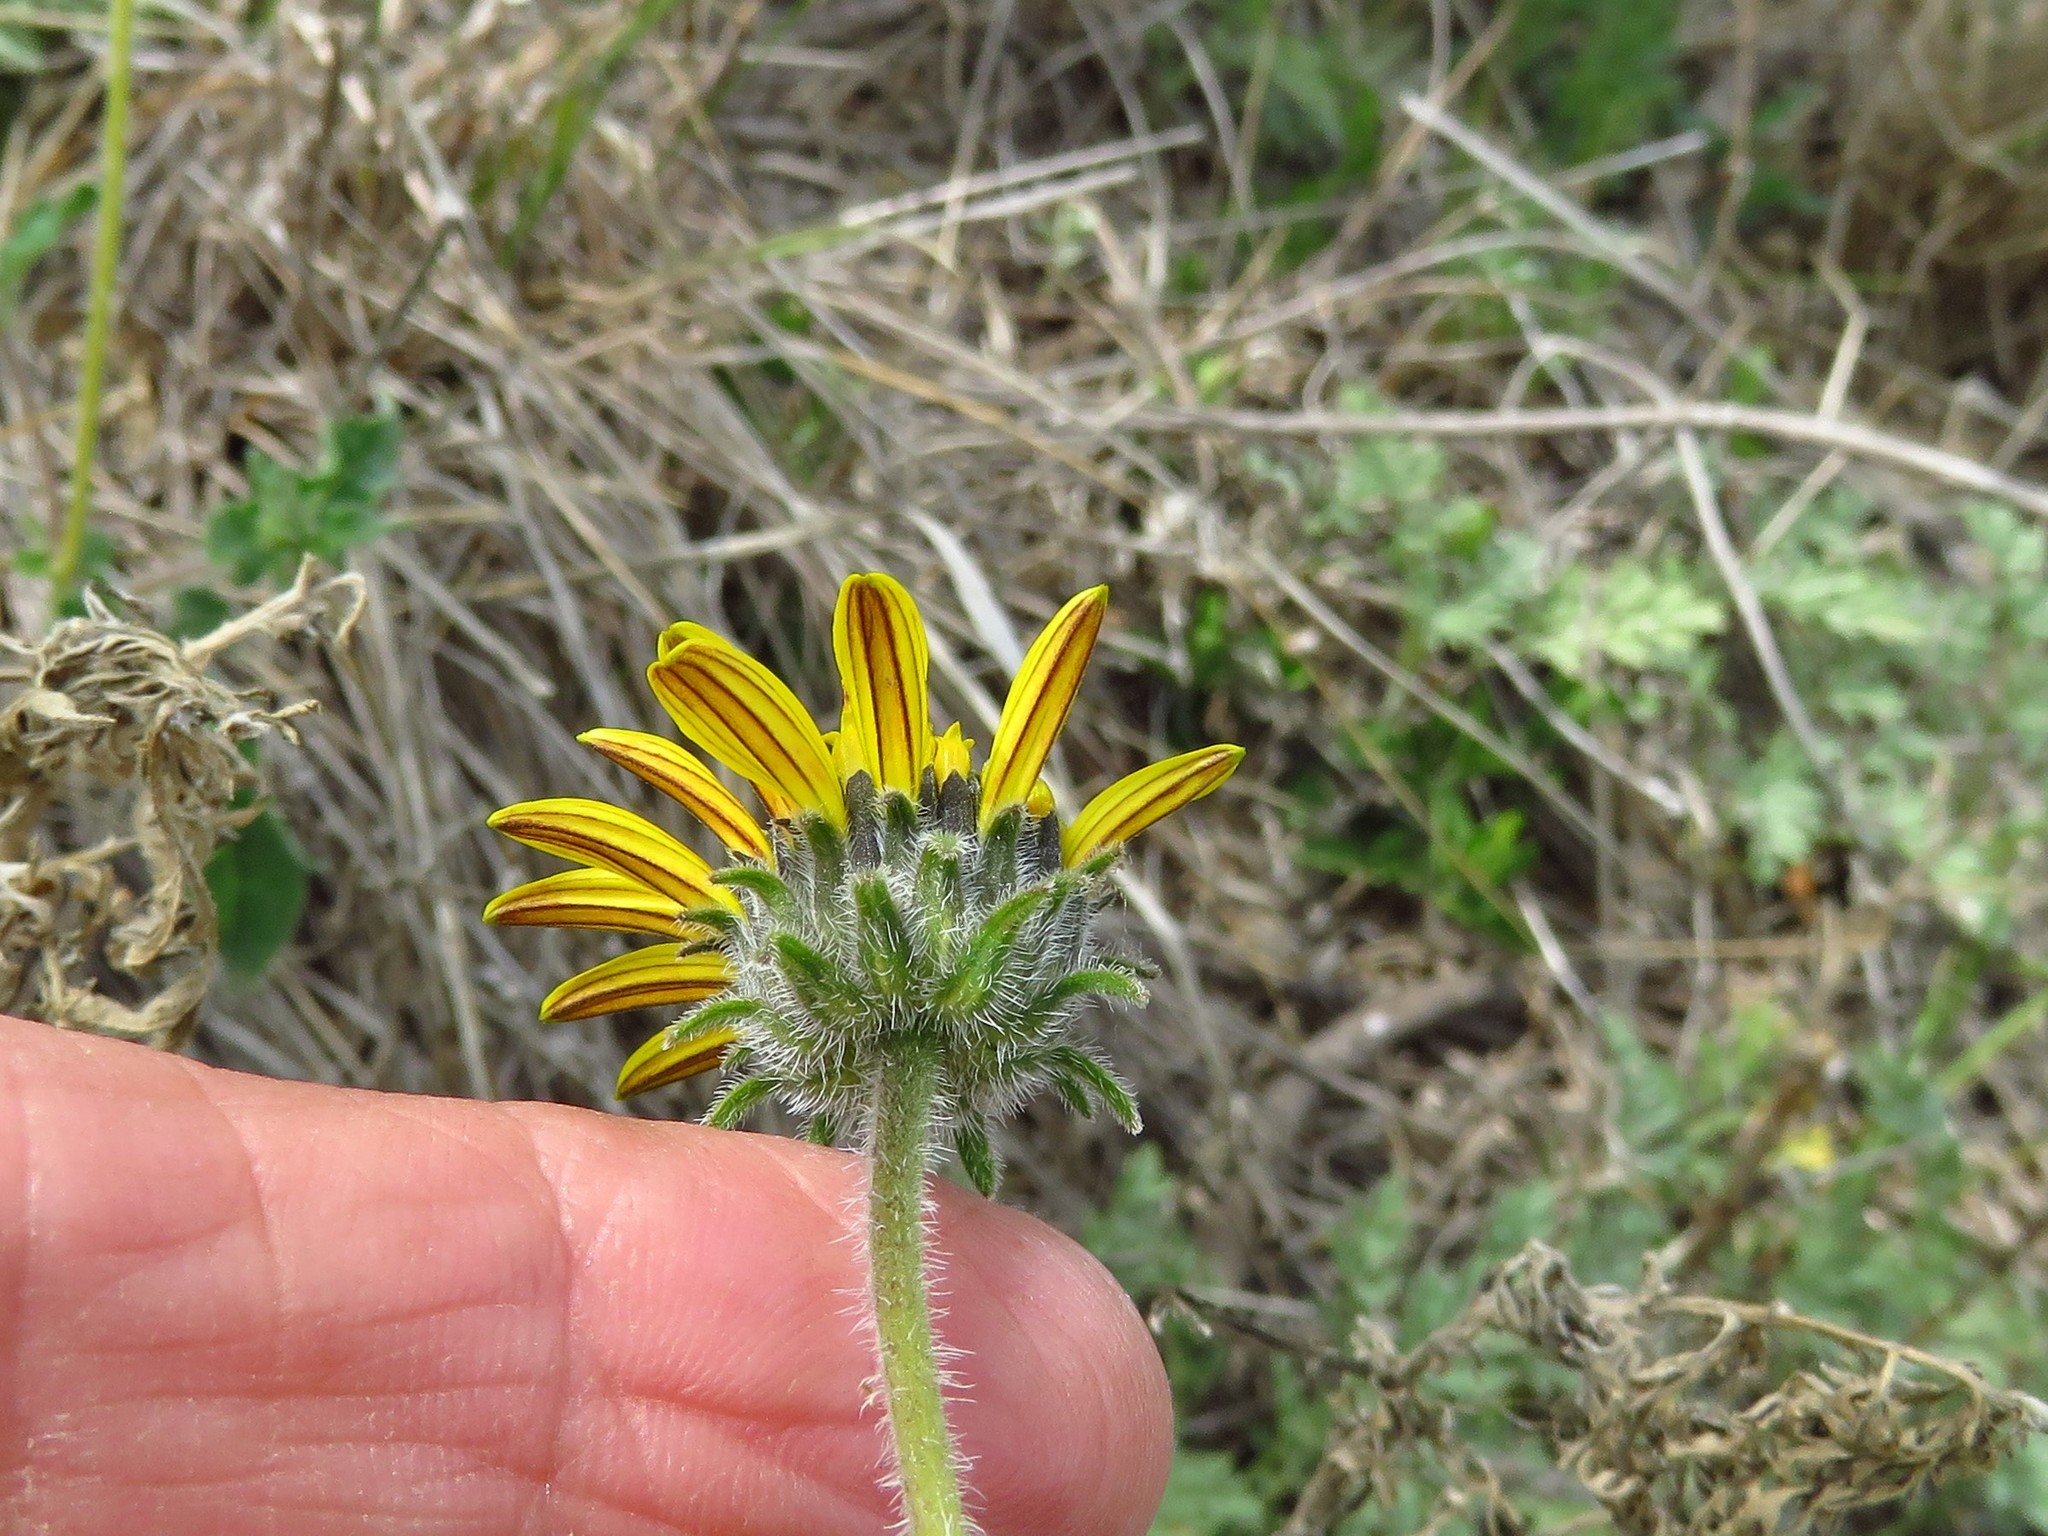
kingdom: Plantae
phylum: Tracheophyta
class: Magnoliopsida
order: Asterales
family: Asteraceae
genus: Simsia
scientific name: Simsia calva
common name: Awnless bush-sunflower
